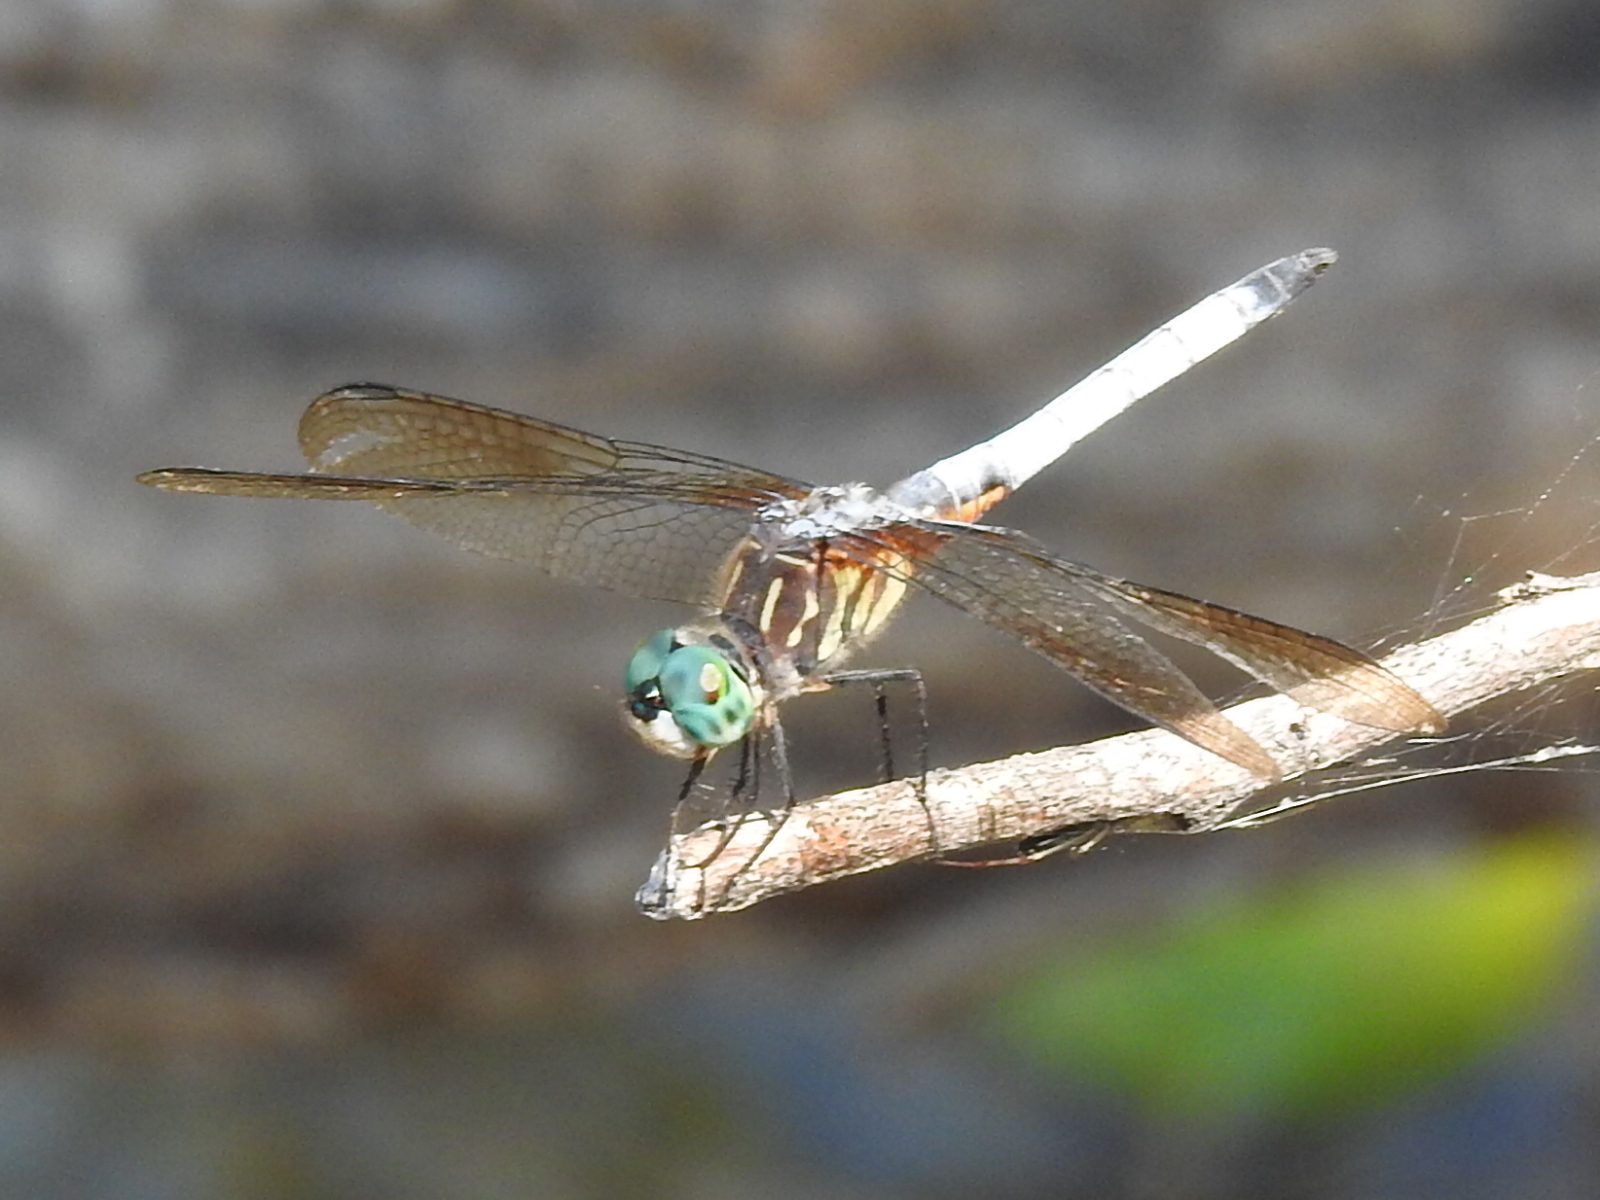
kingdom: Animalia
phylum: Arthropoda
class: Insecta
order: Odonata
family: Libellulidae
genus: Pachydiplax
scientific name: Pachydiplax longipennis
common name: Blue dasher
